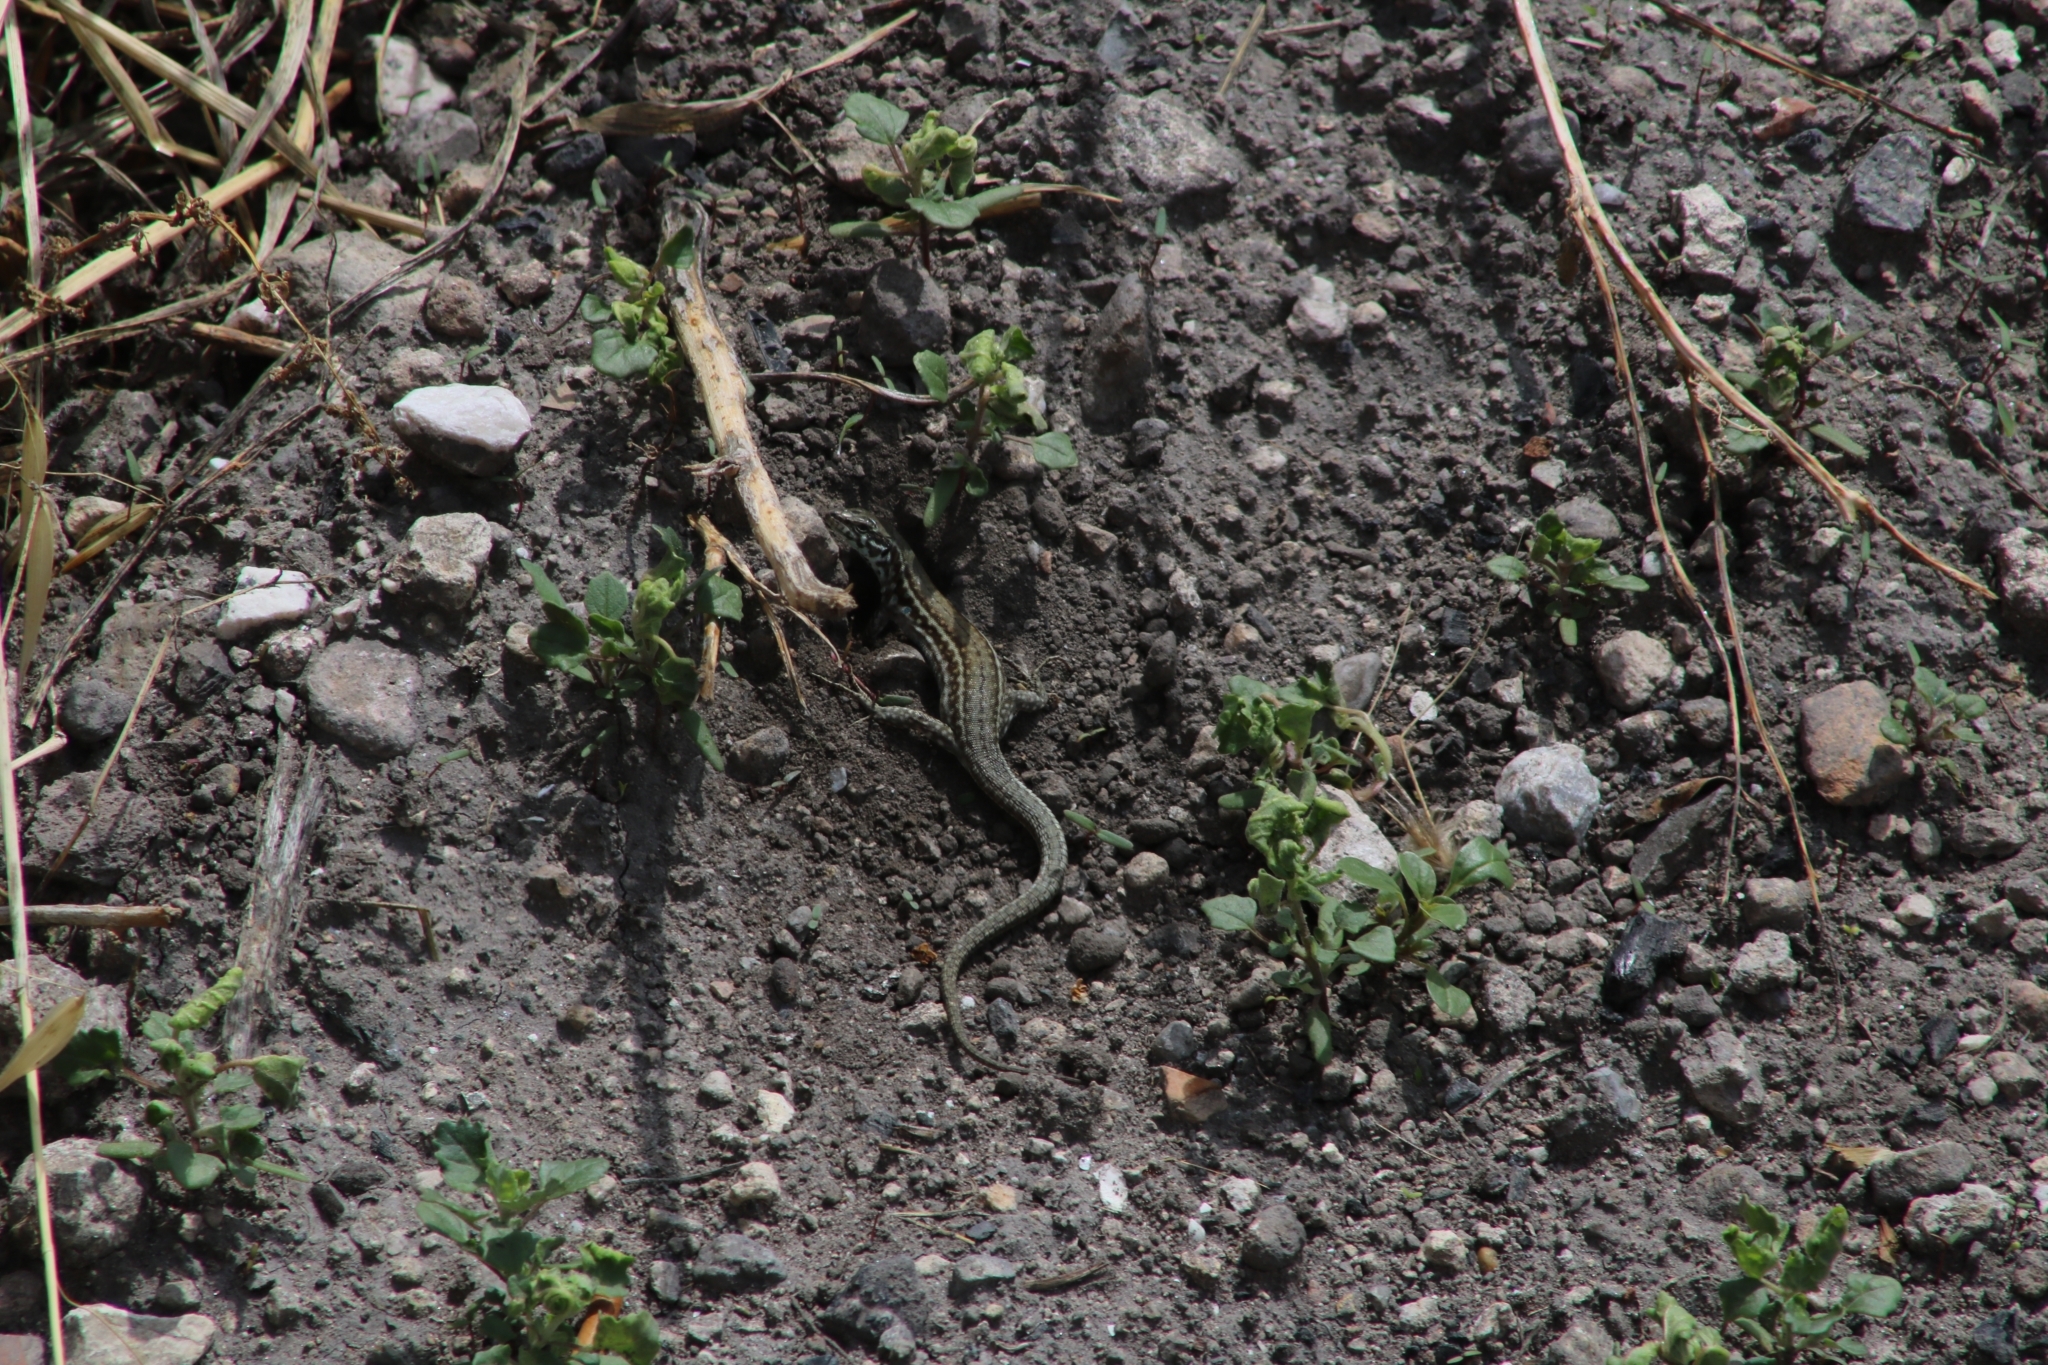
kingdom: Animalia
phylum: Chordata
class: Squamata
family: Lacertidae
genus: Podarcis
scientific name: Podarcis milensis
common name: Milos wall lizard
